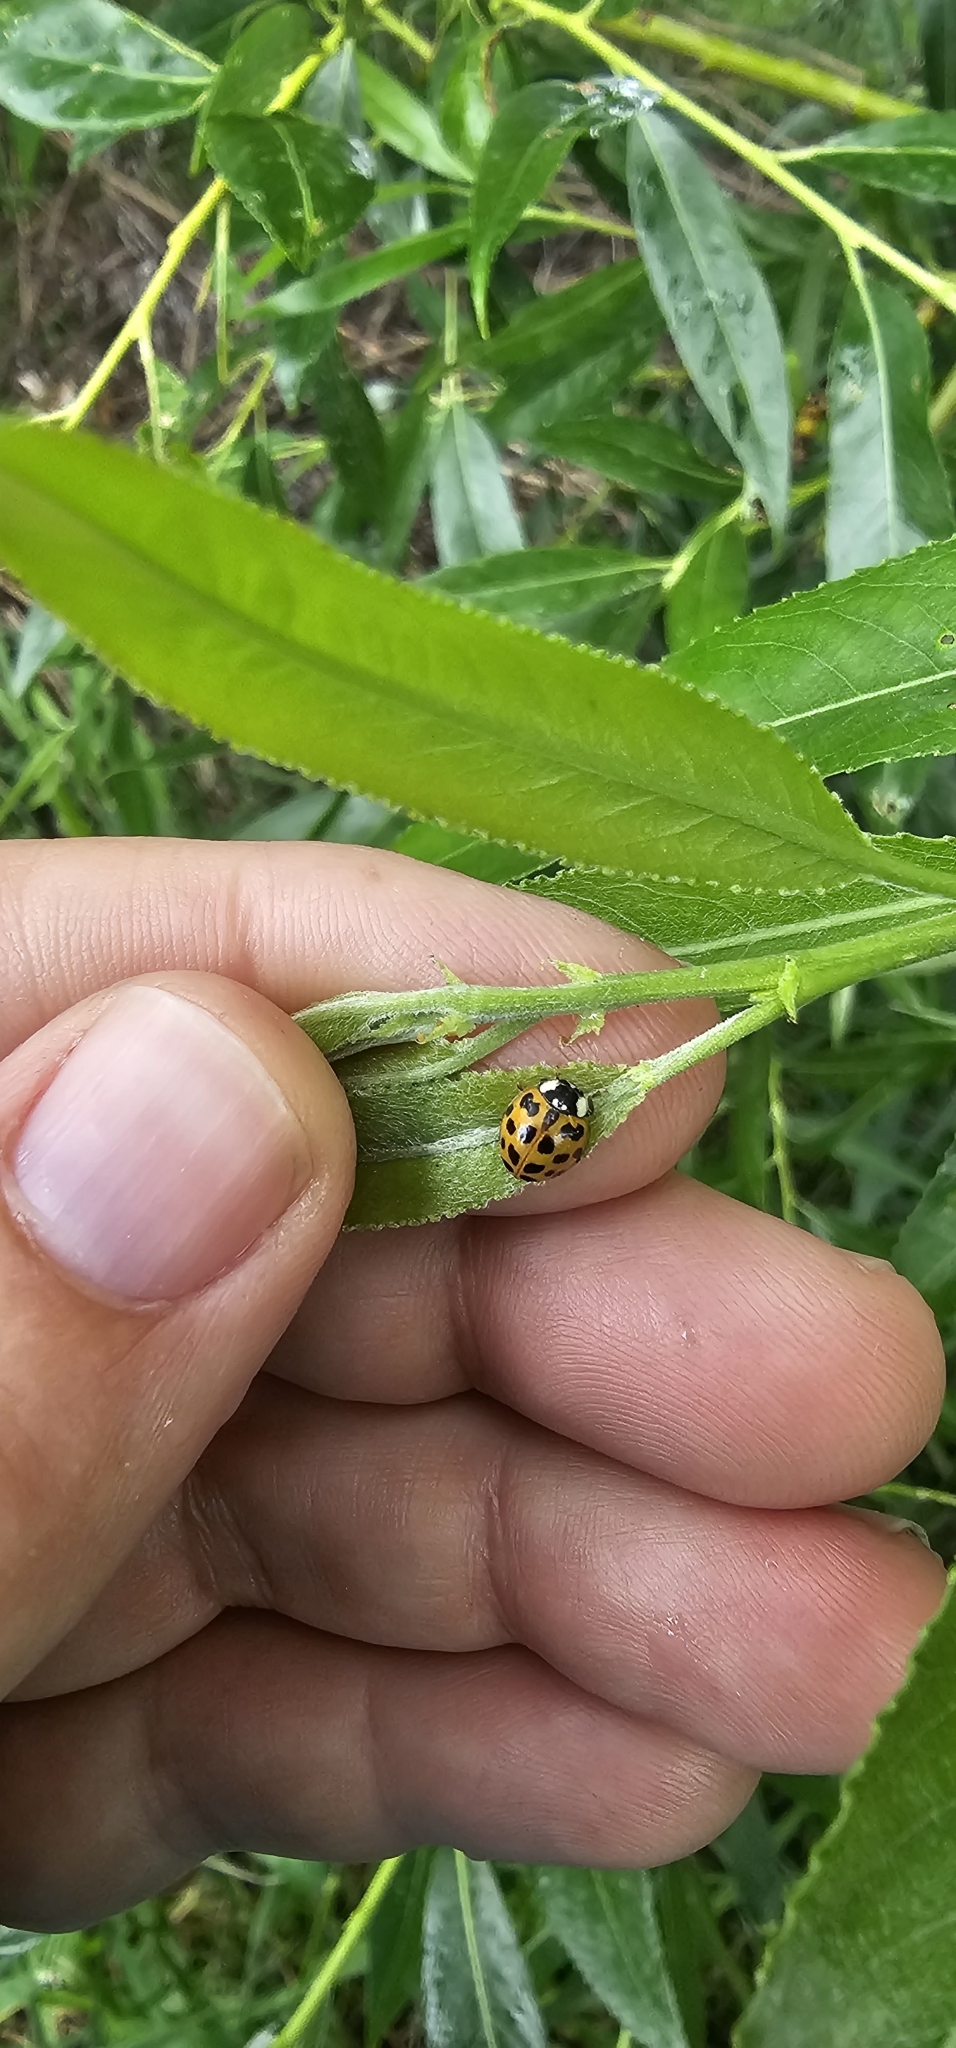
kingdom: Animalia
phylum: Arthropoda
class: Insecta
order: Coleoptera
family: Coccinellidae
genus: Harmonia
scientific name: Harmonia axyridis
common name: Harlequin ladybird
